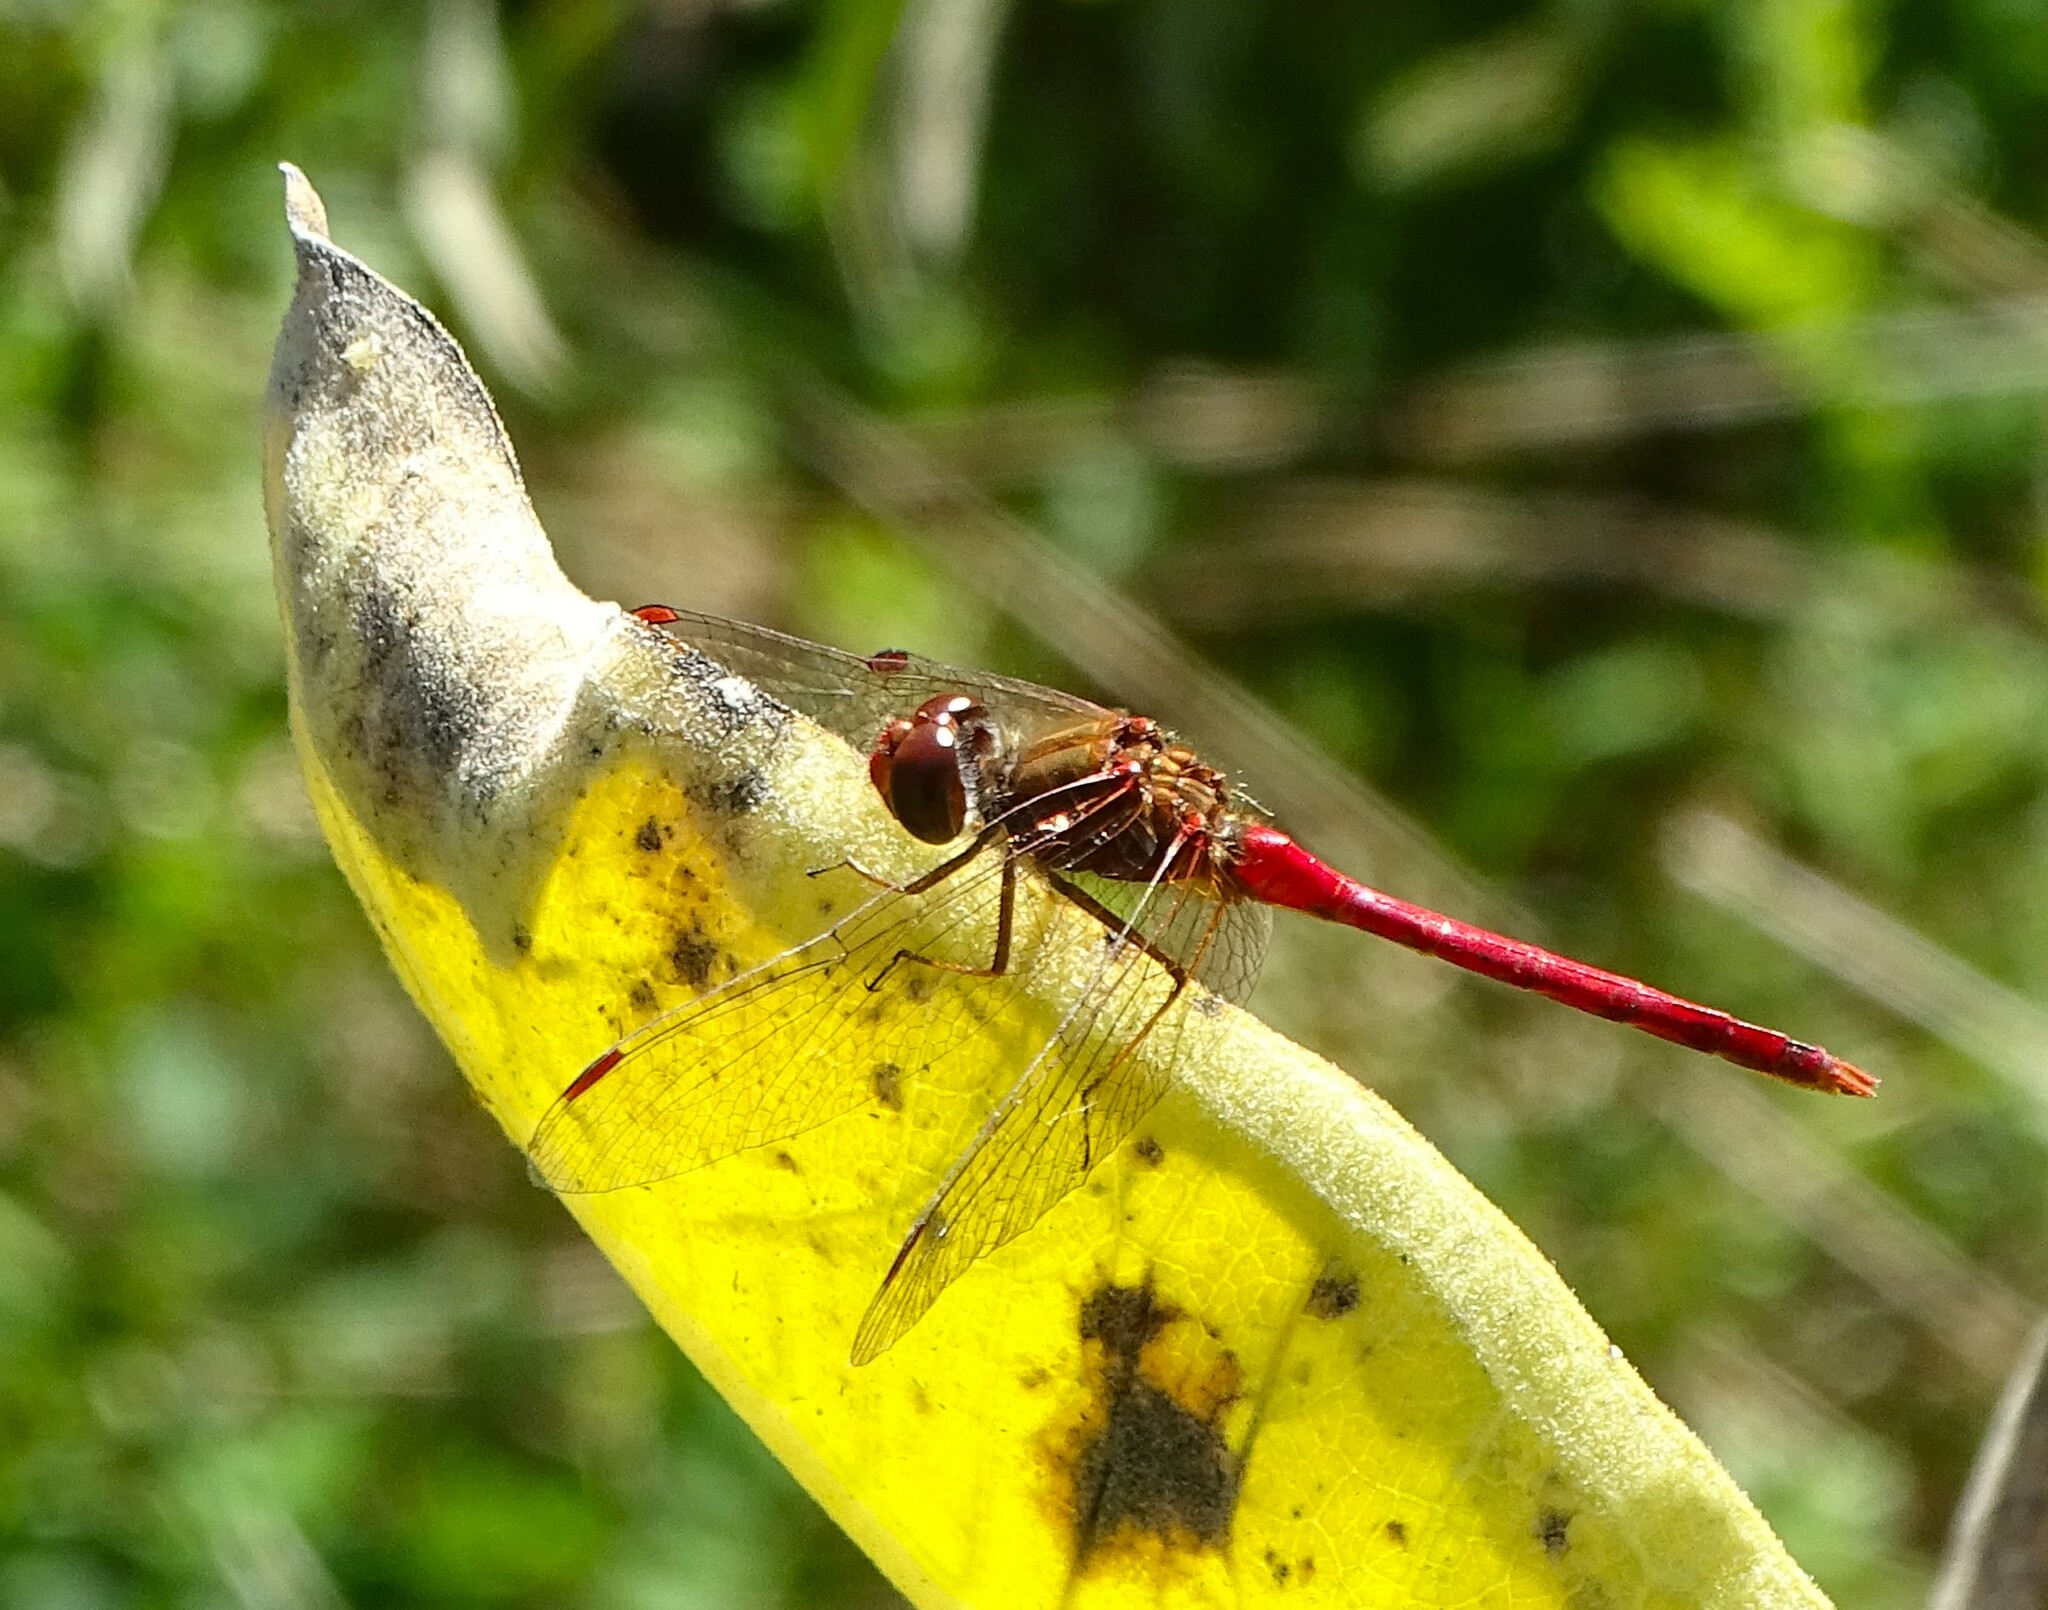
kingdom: Animalia
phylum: Arthropoda
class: Insecta
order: Odonata
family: Libellulidae
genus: Sympetrum
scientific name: Sympetrum vicinum
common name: Autumn meadowhawk
